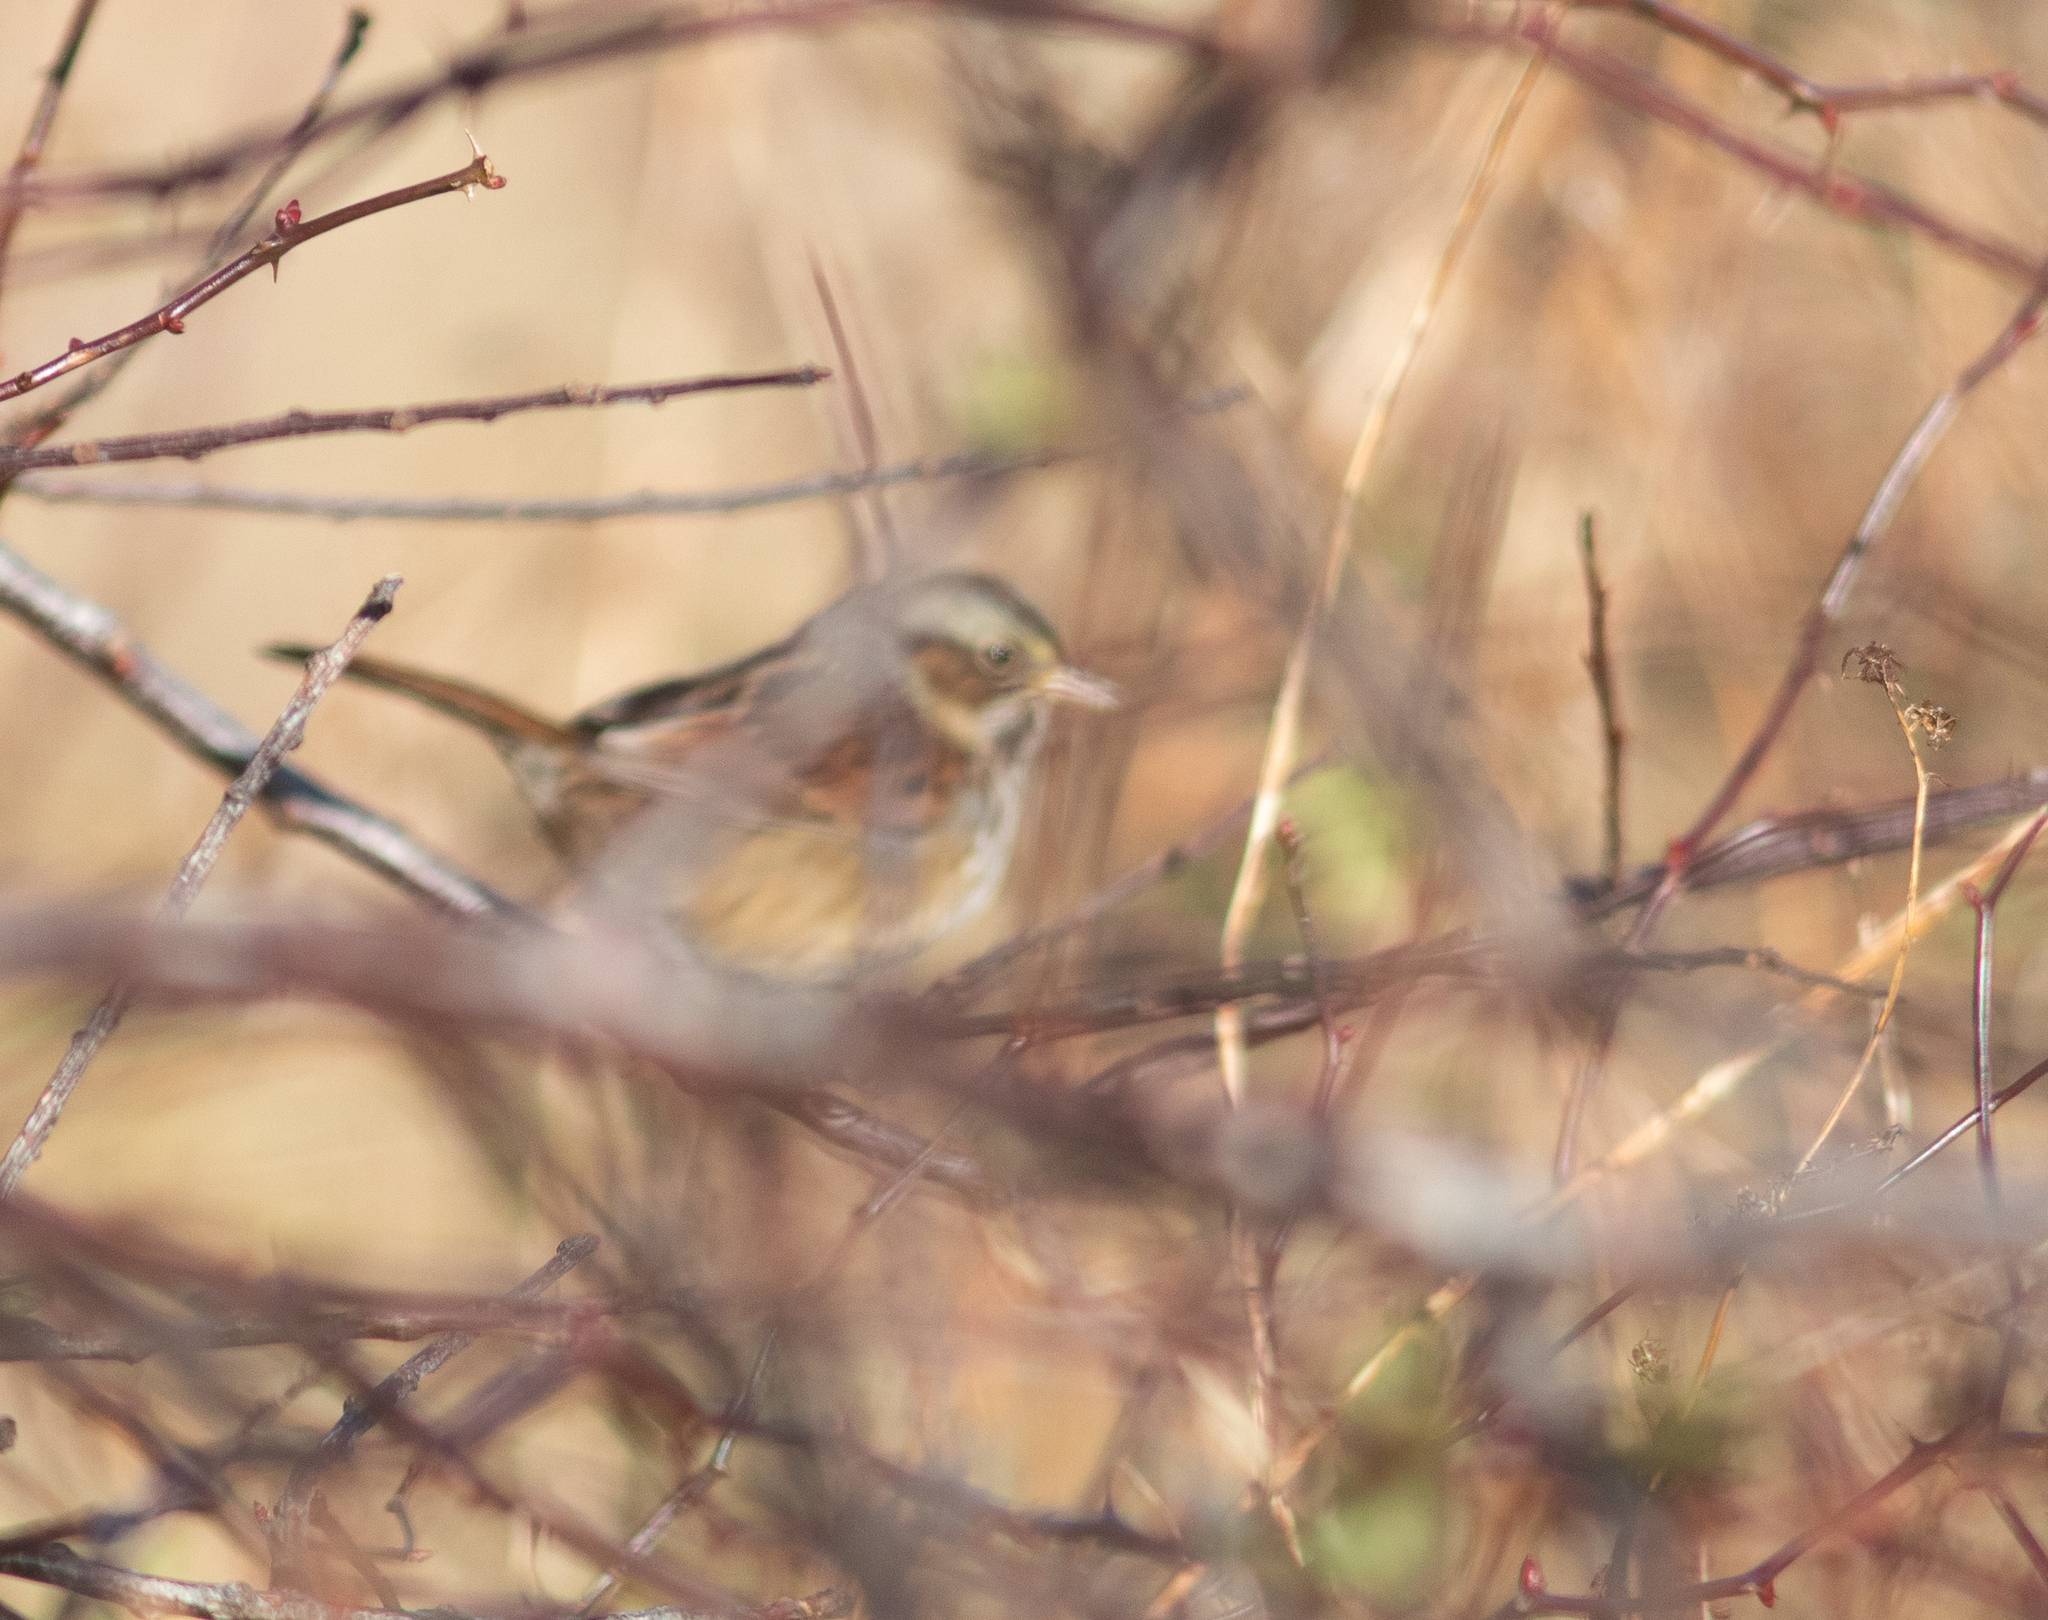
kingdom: Animalia
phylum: Chordata
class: Aves
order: Passeriformes
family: Passerellidae
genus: Melospiza
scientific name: Melospiza georgiana
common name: Swamp sparrow
